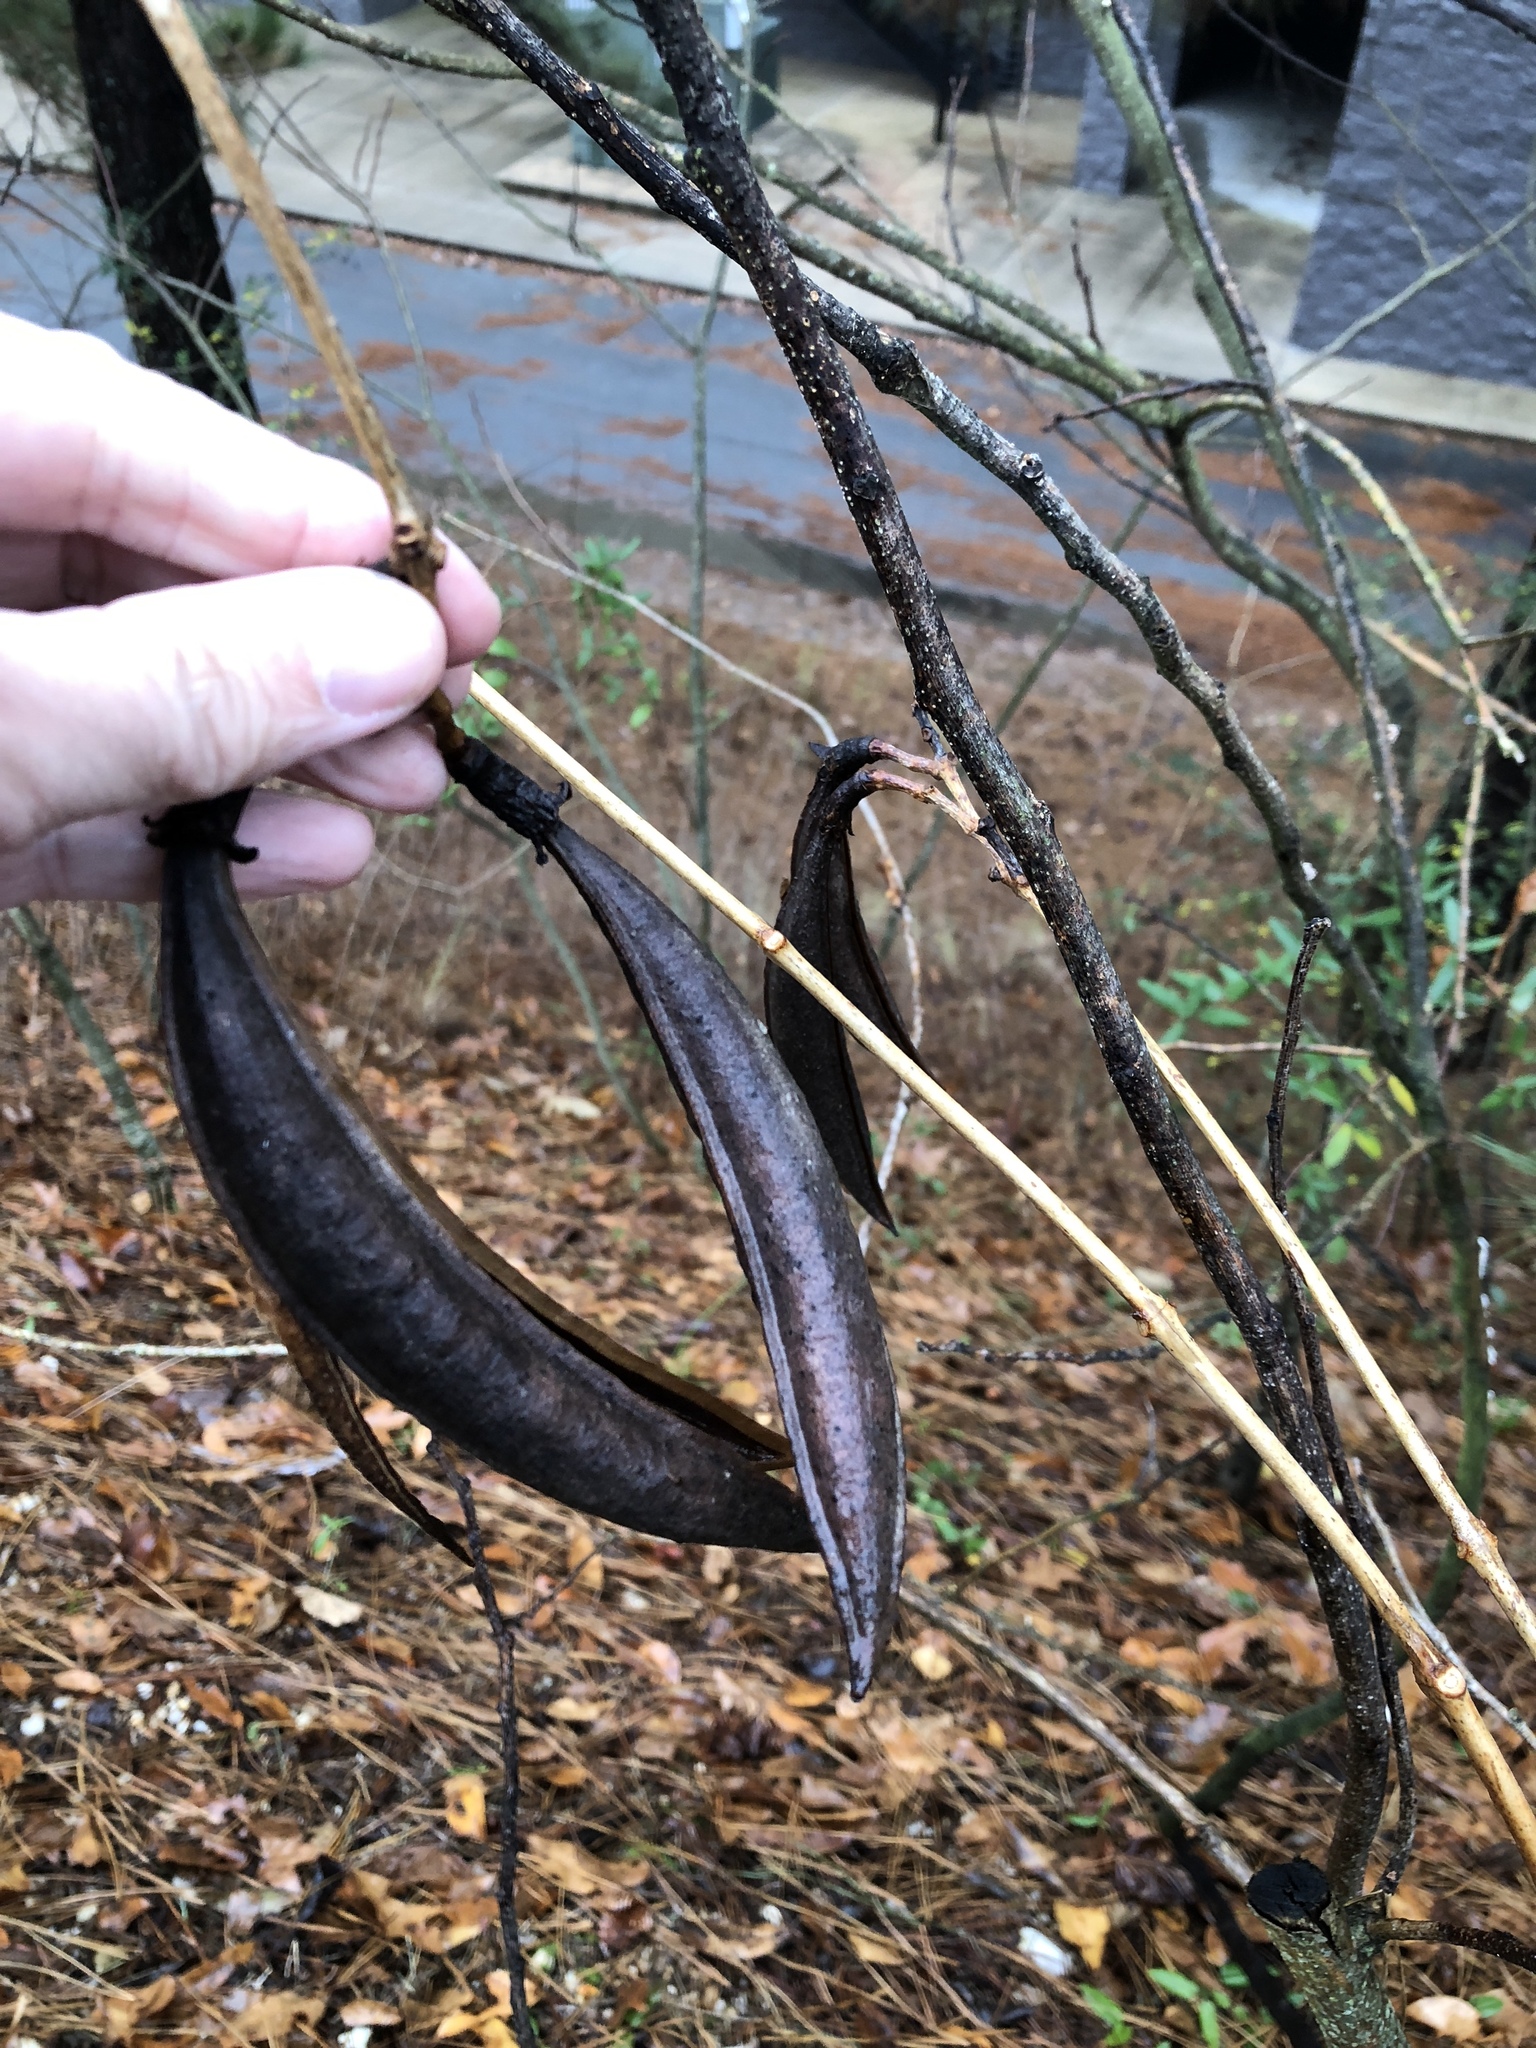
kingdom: Plantae
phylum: Tracheophyta
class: Magnoliopsida
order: Lamiales
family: Bignoniaceae
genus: Campsis
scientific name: Campsis radicans
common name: Trumpet-creeper
